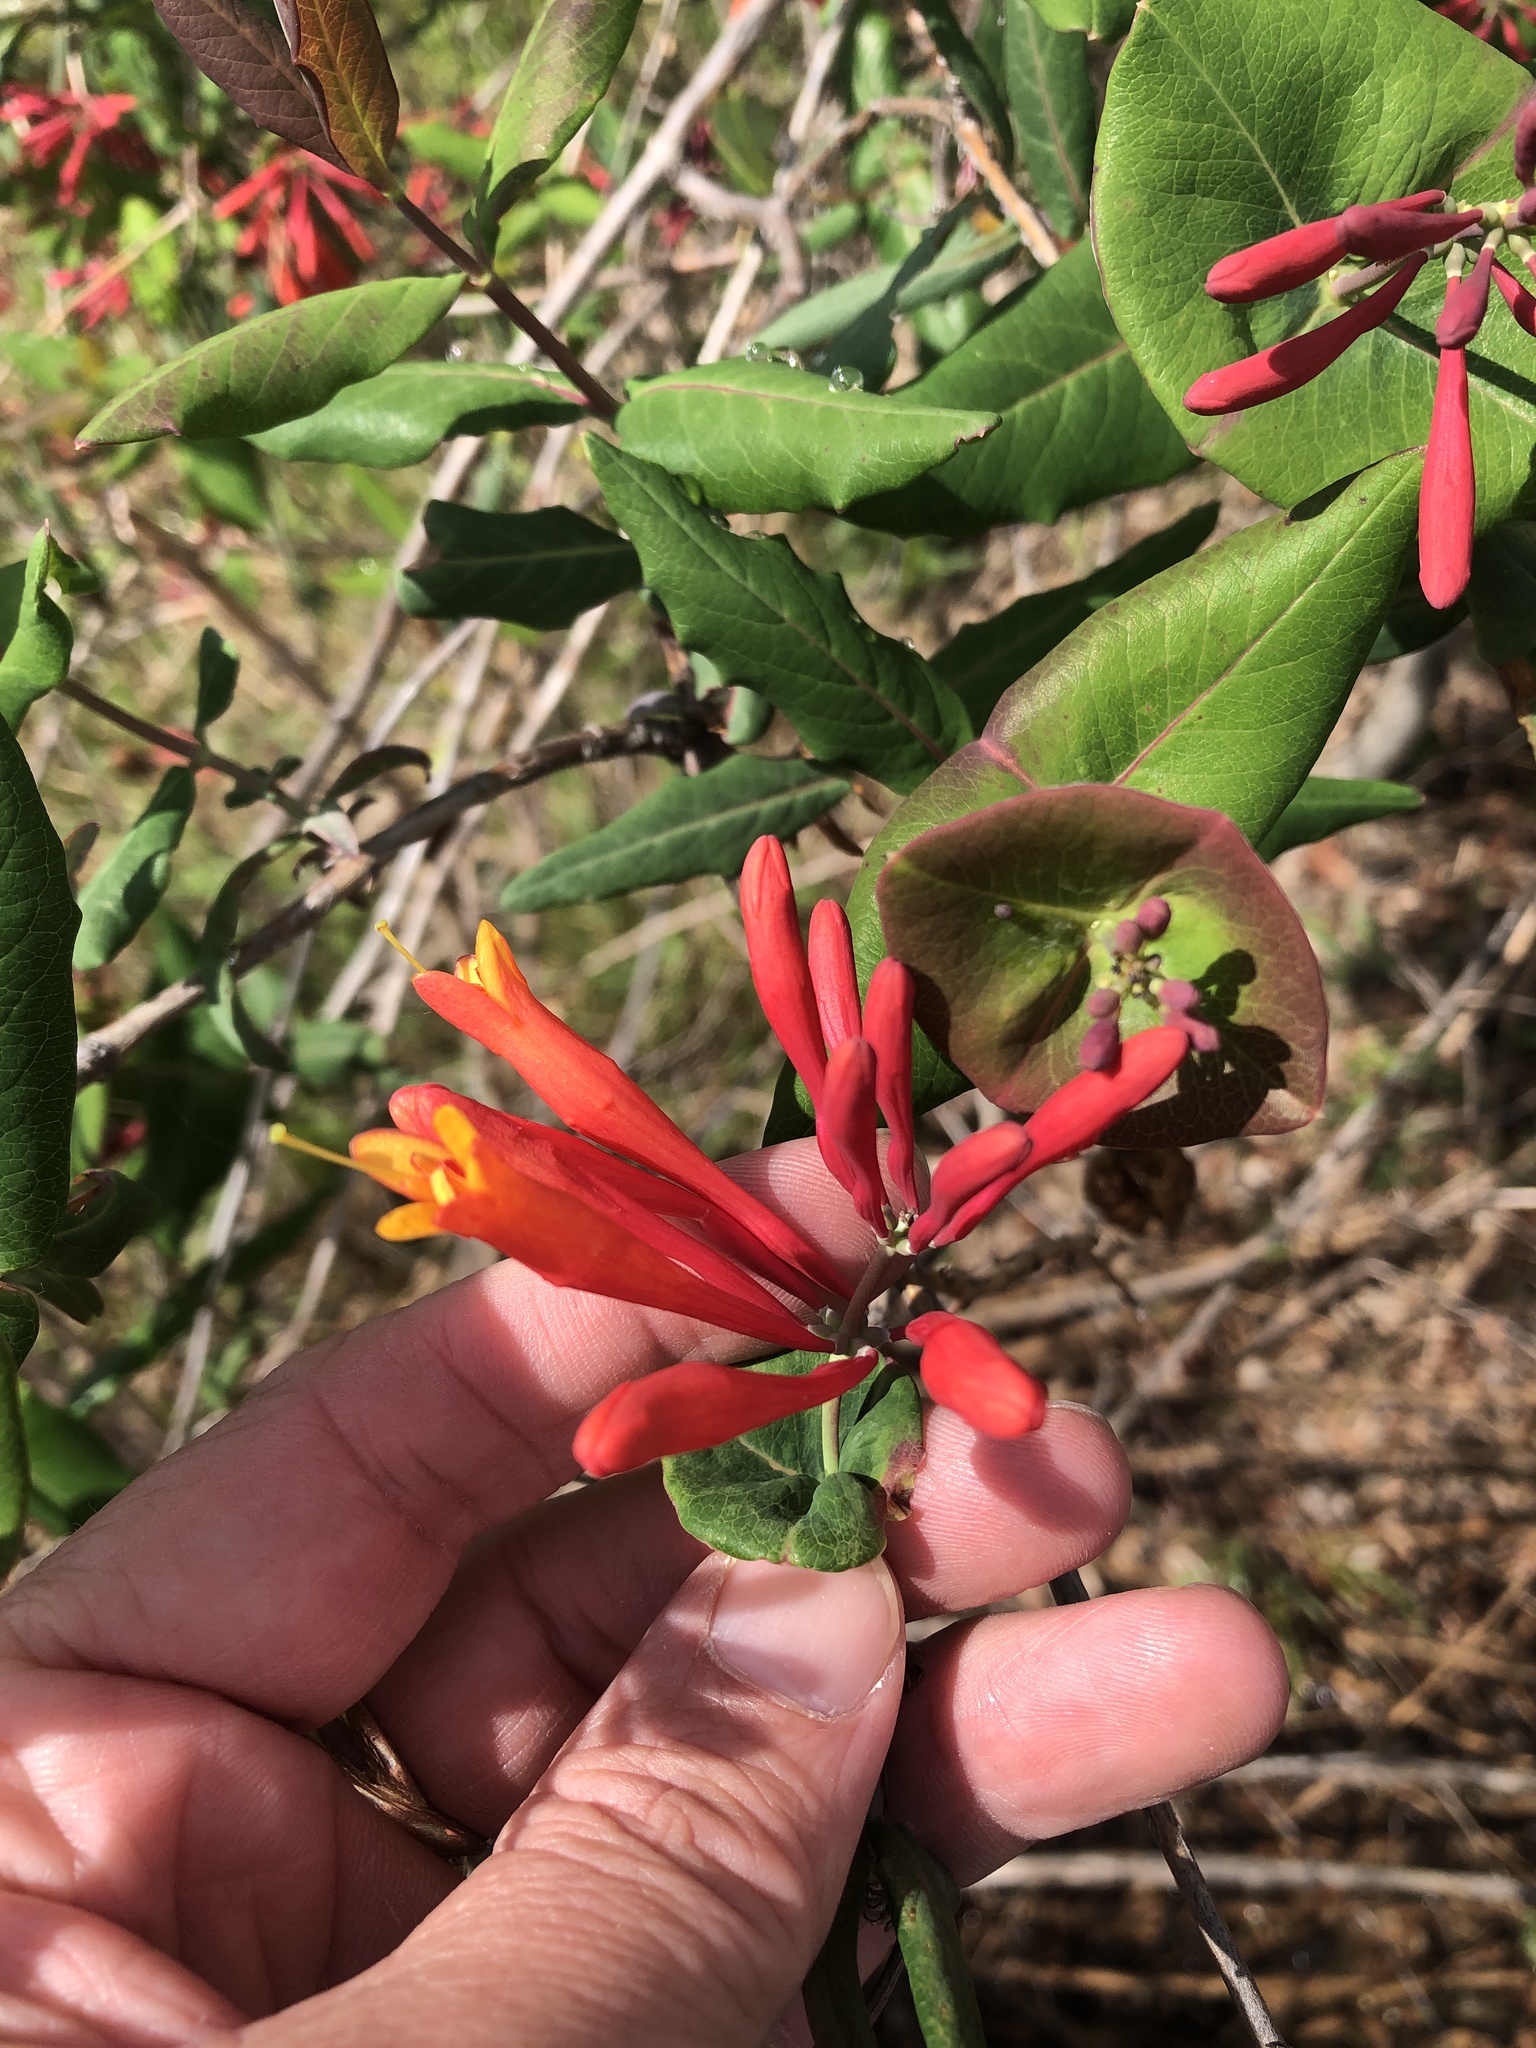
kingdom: Plantae
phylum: Tracheophyta
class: Magnoliopsida
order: Dipsacales
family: Caprifoliaceae
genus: Lonicera
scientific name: Lonicera sempervirens
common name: Coral honeysuckle
